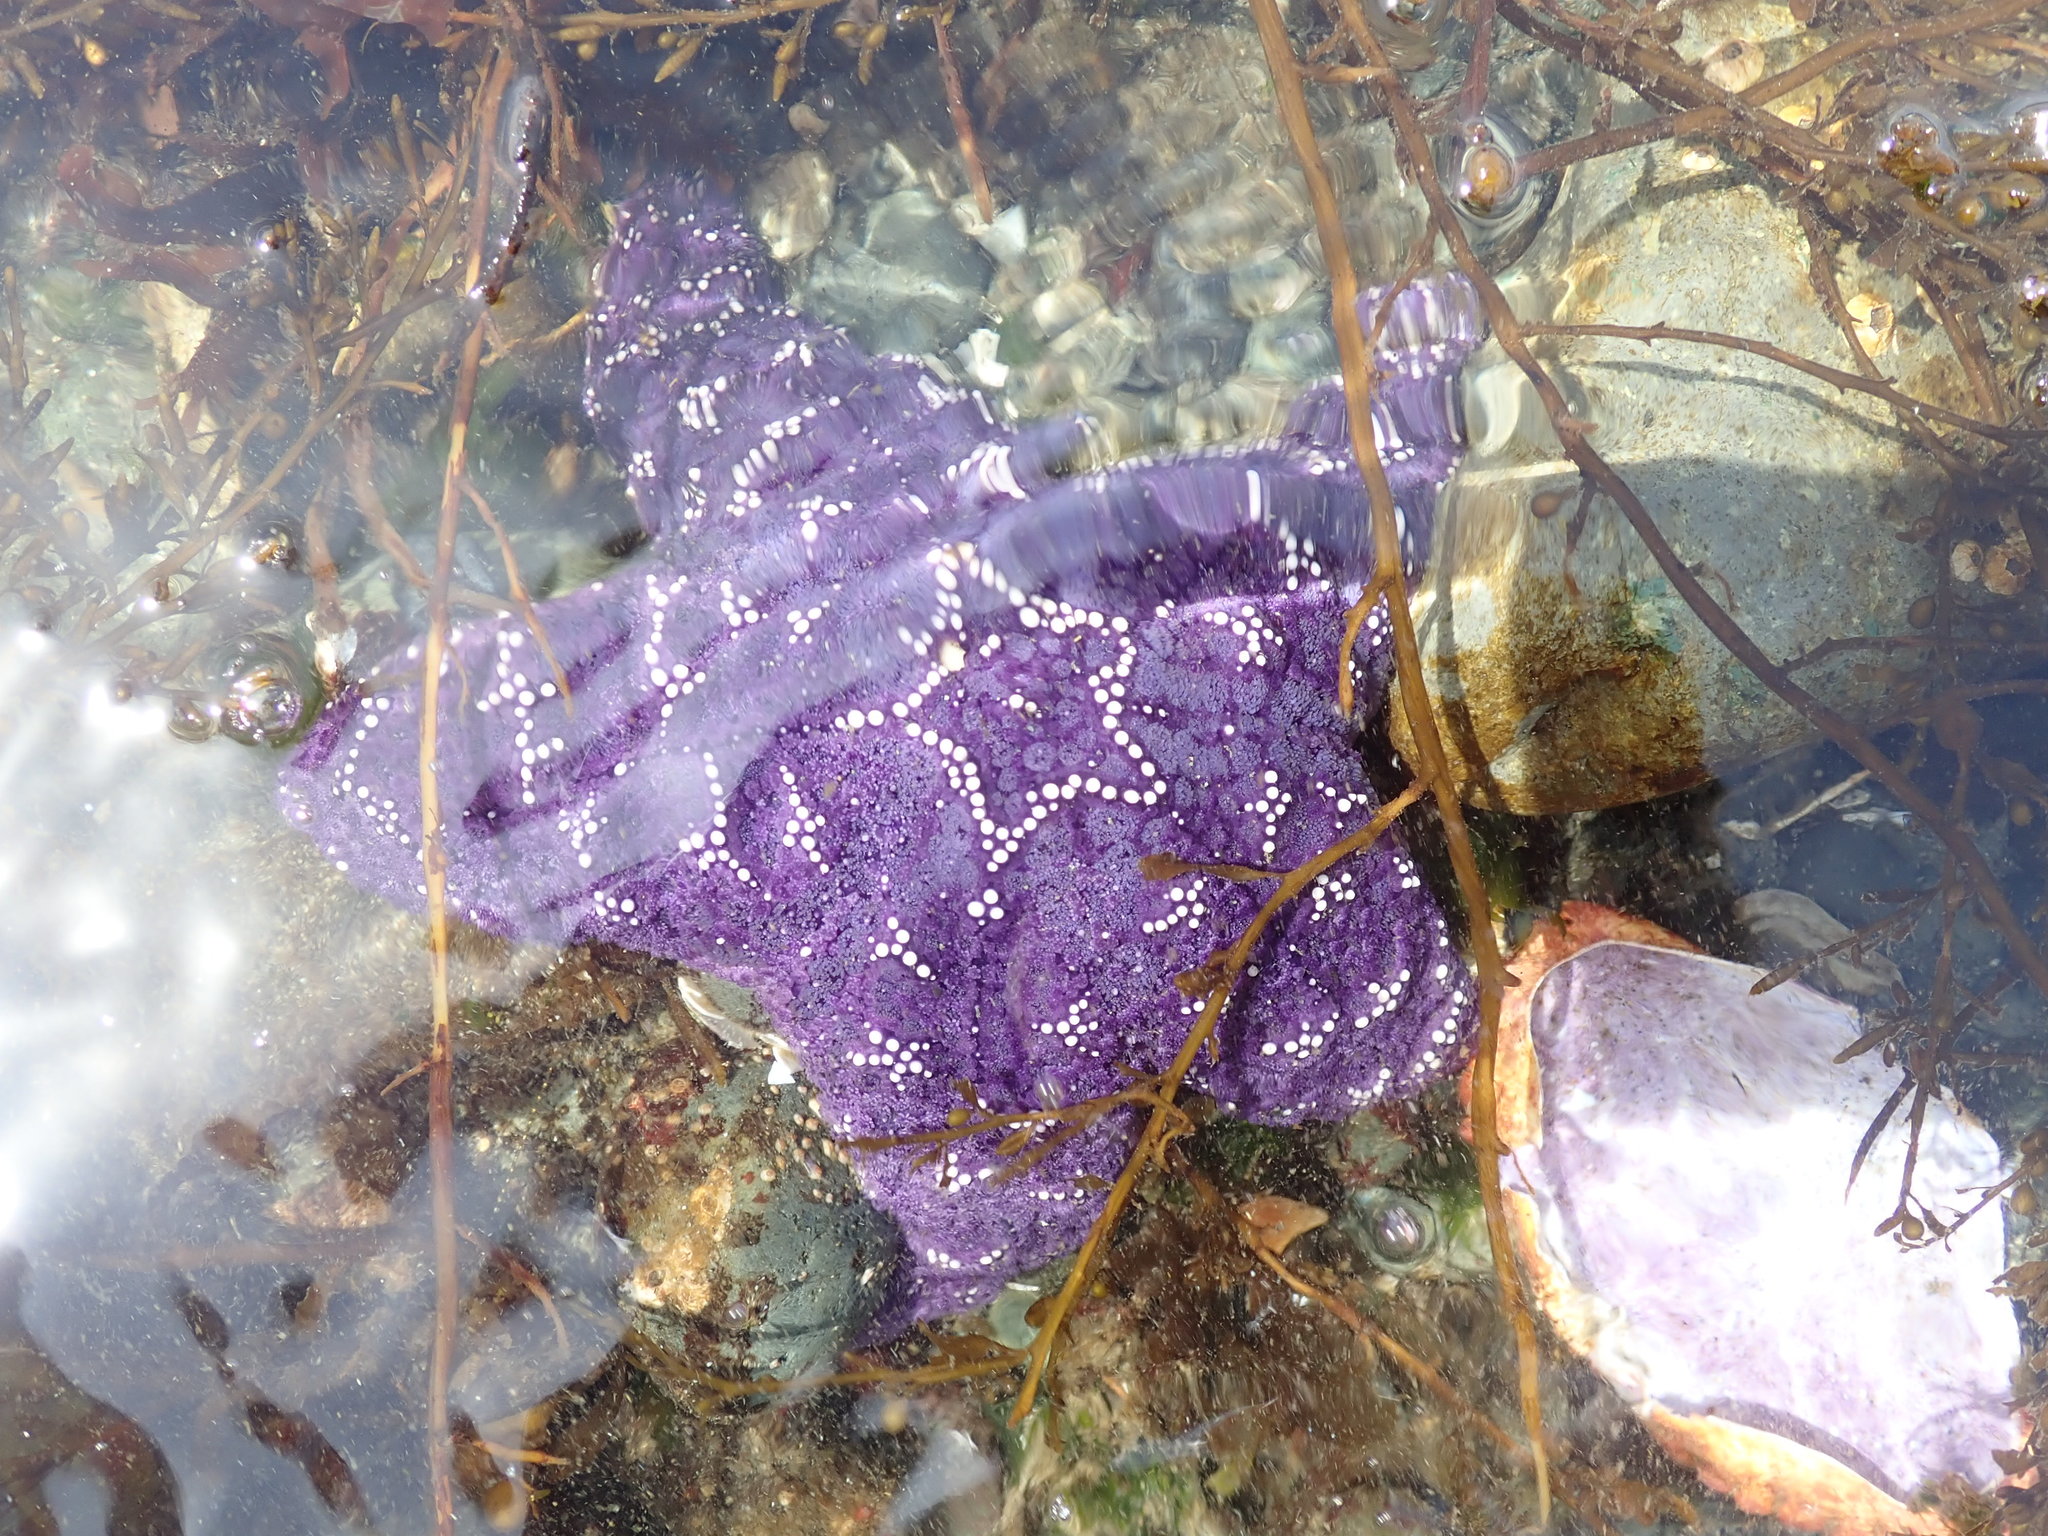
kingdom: Animalia
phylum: Echinodermata
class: Asteroidea
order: Forcipulatida
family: Asteriidae
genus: Pisaster
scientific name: Pisaster ochraceus
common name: Ochre stars
